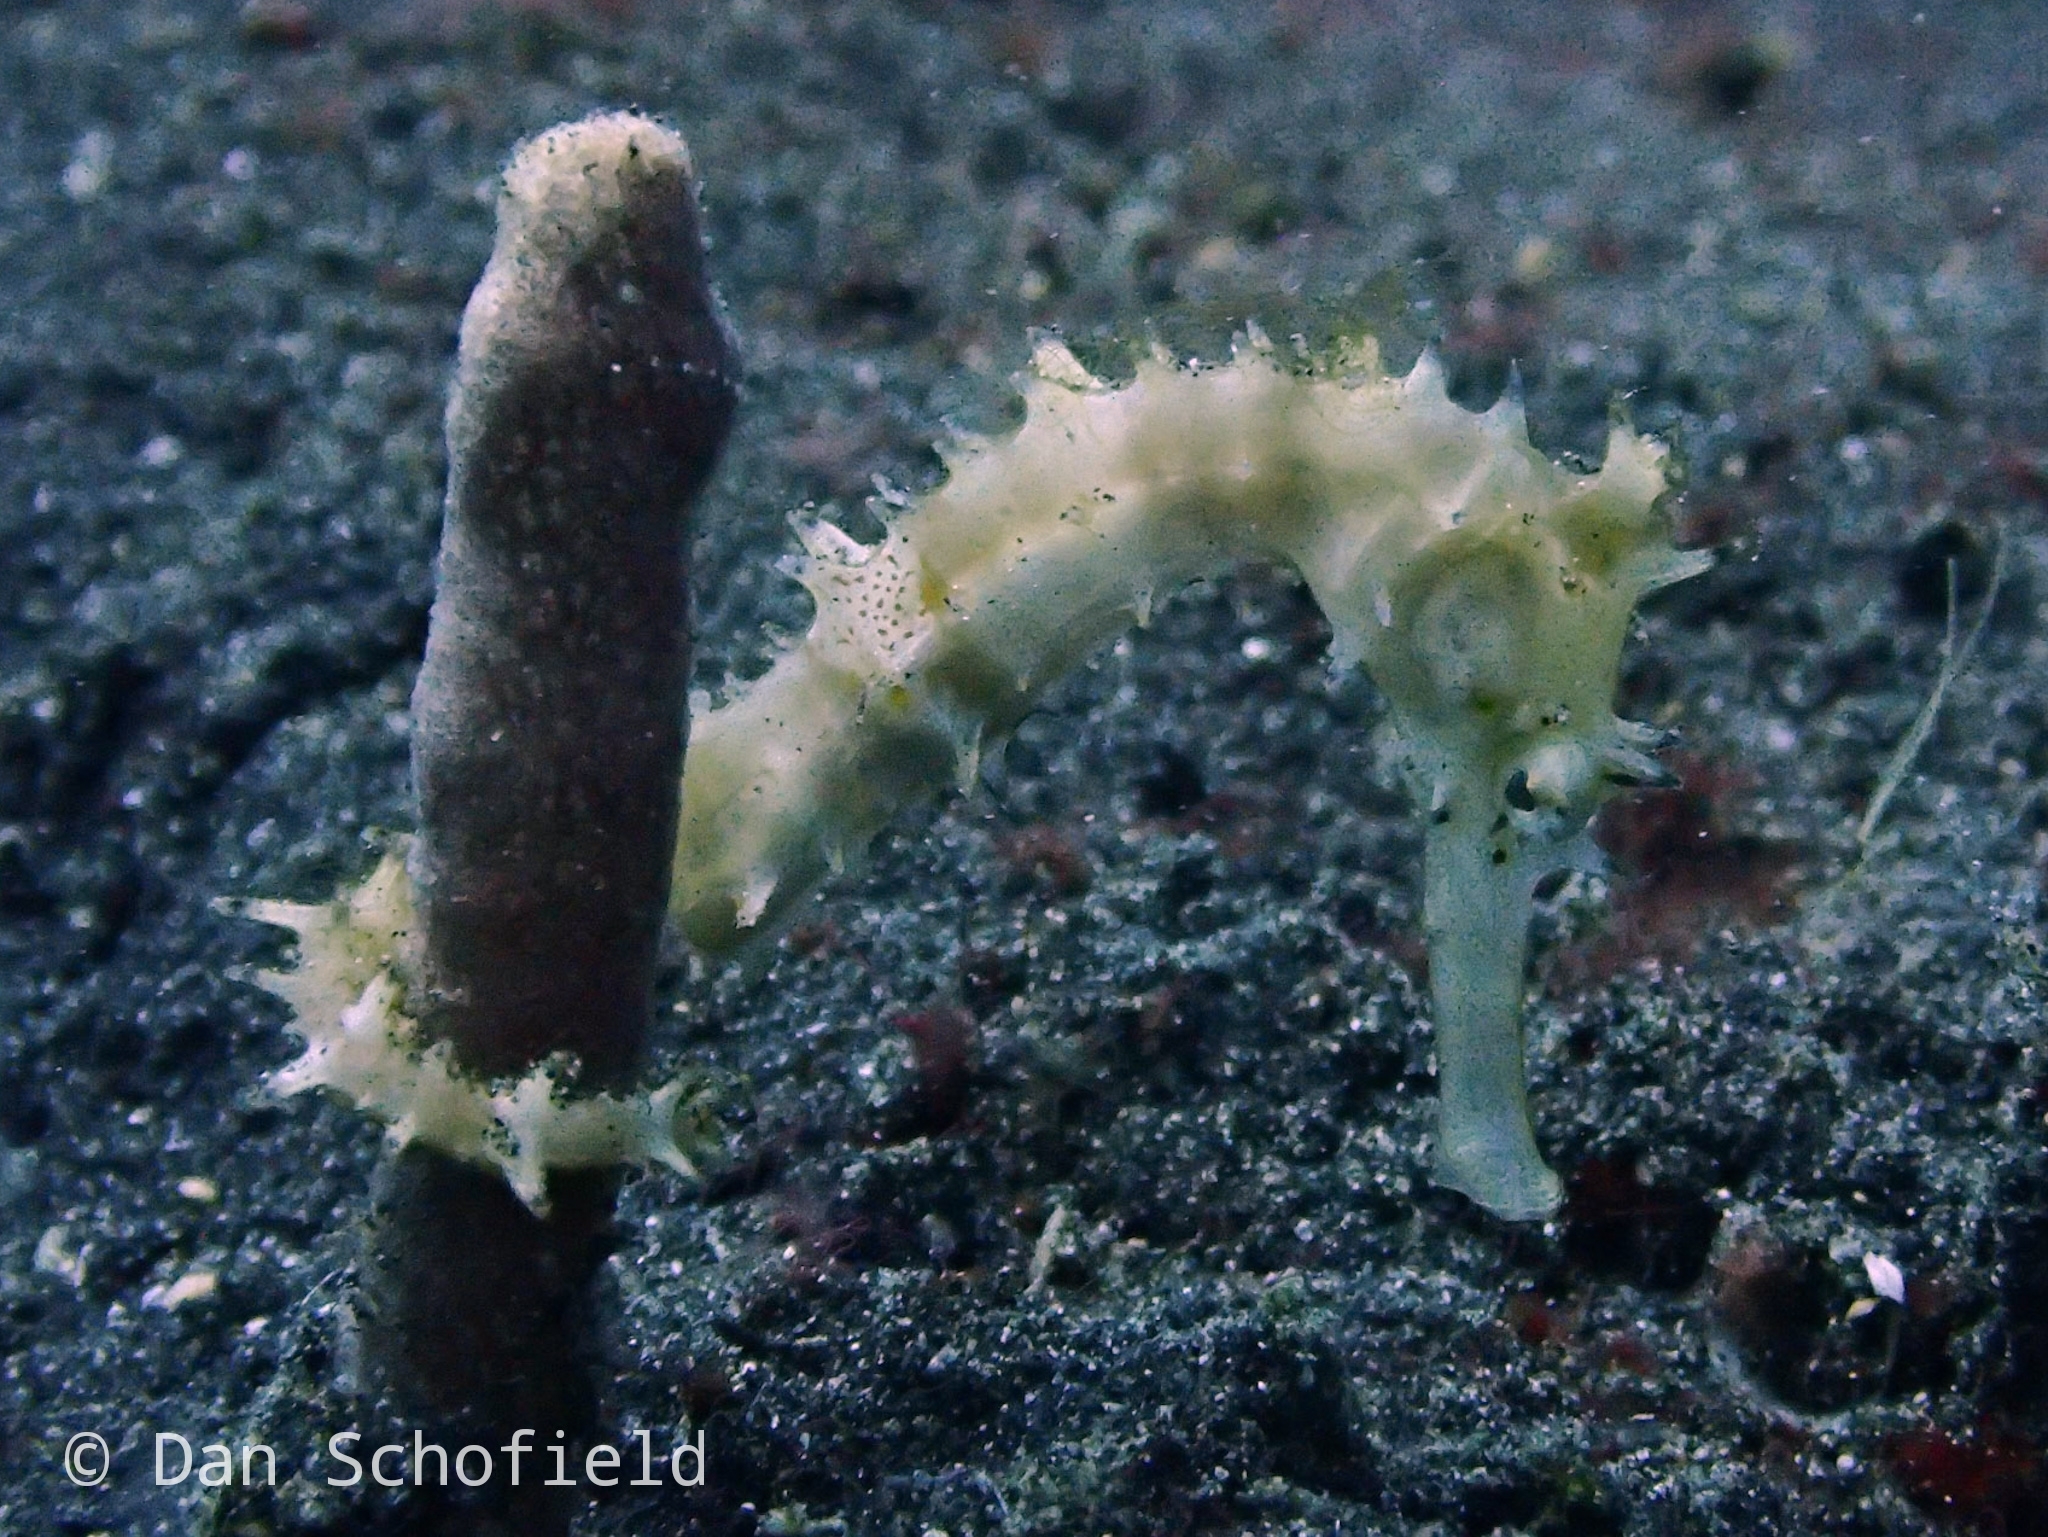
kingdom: Animalia
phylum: Chordata
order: Syngnathiformes
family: Syngnathidae
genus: Hippocampus
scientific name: Hippocampus histrix
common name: Longspine seahorse
